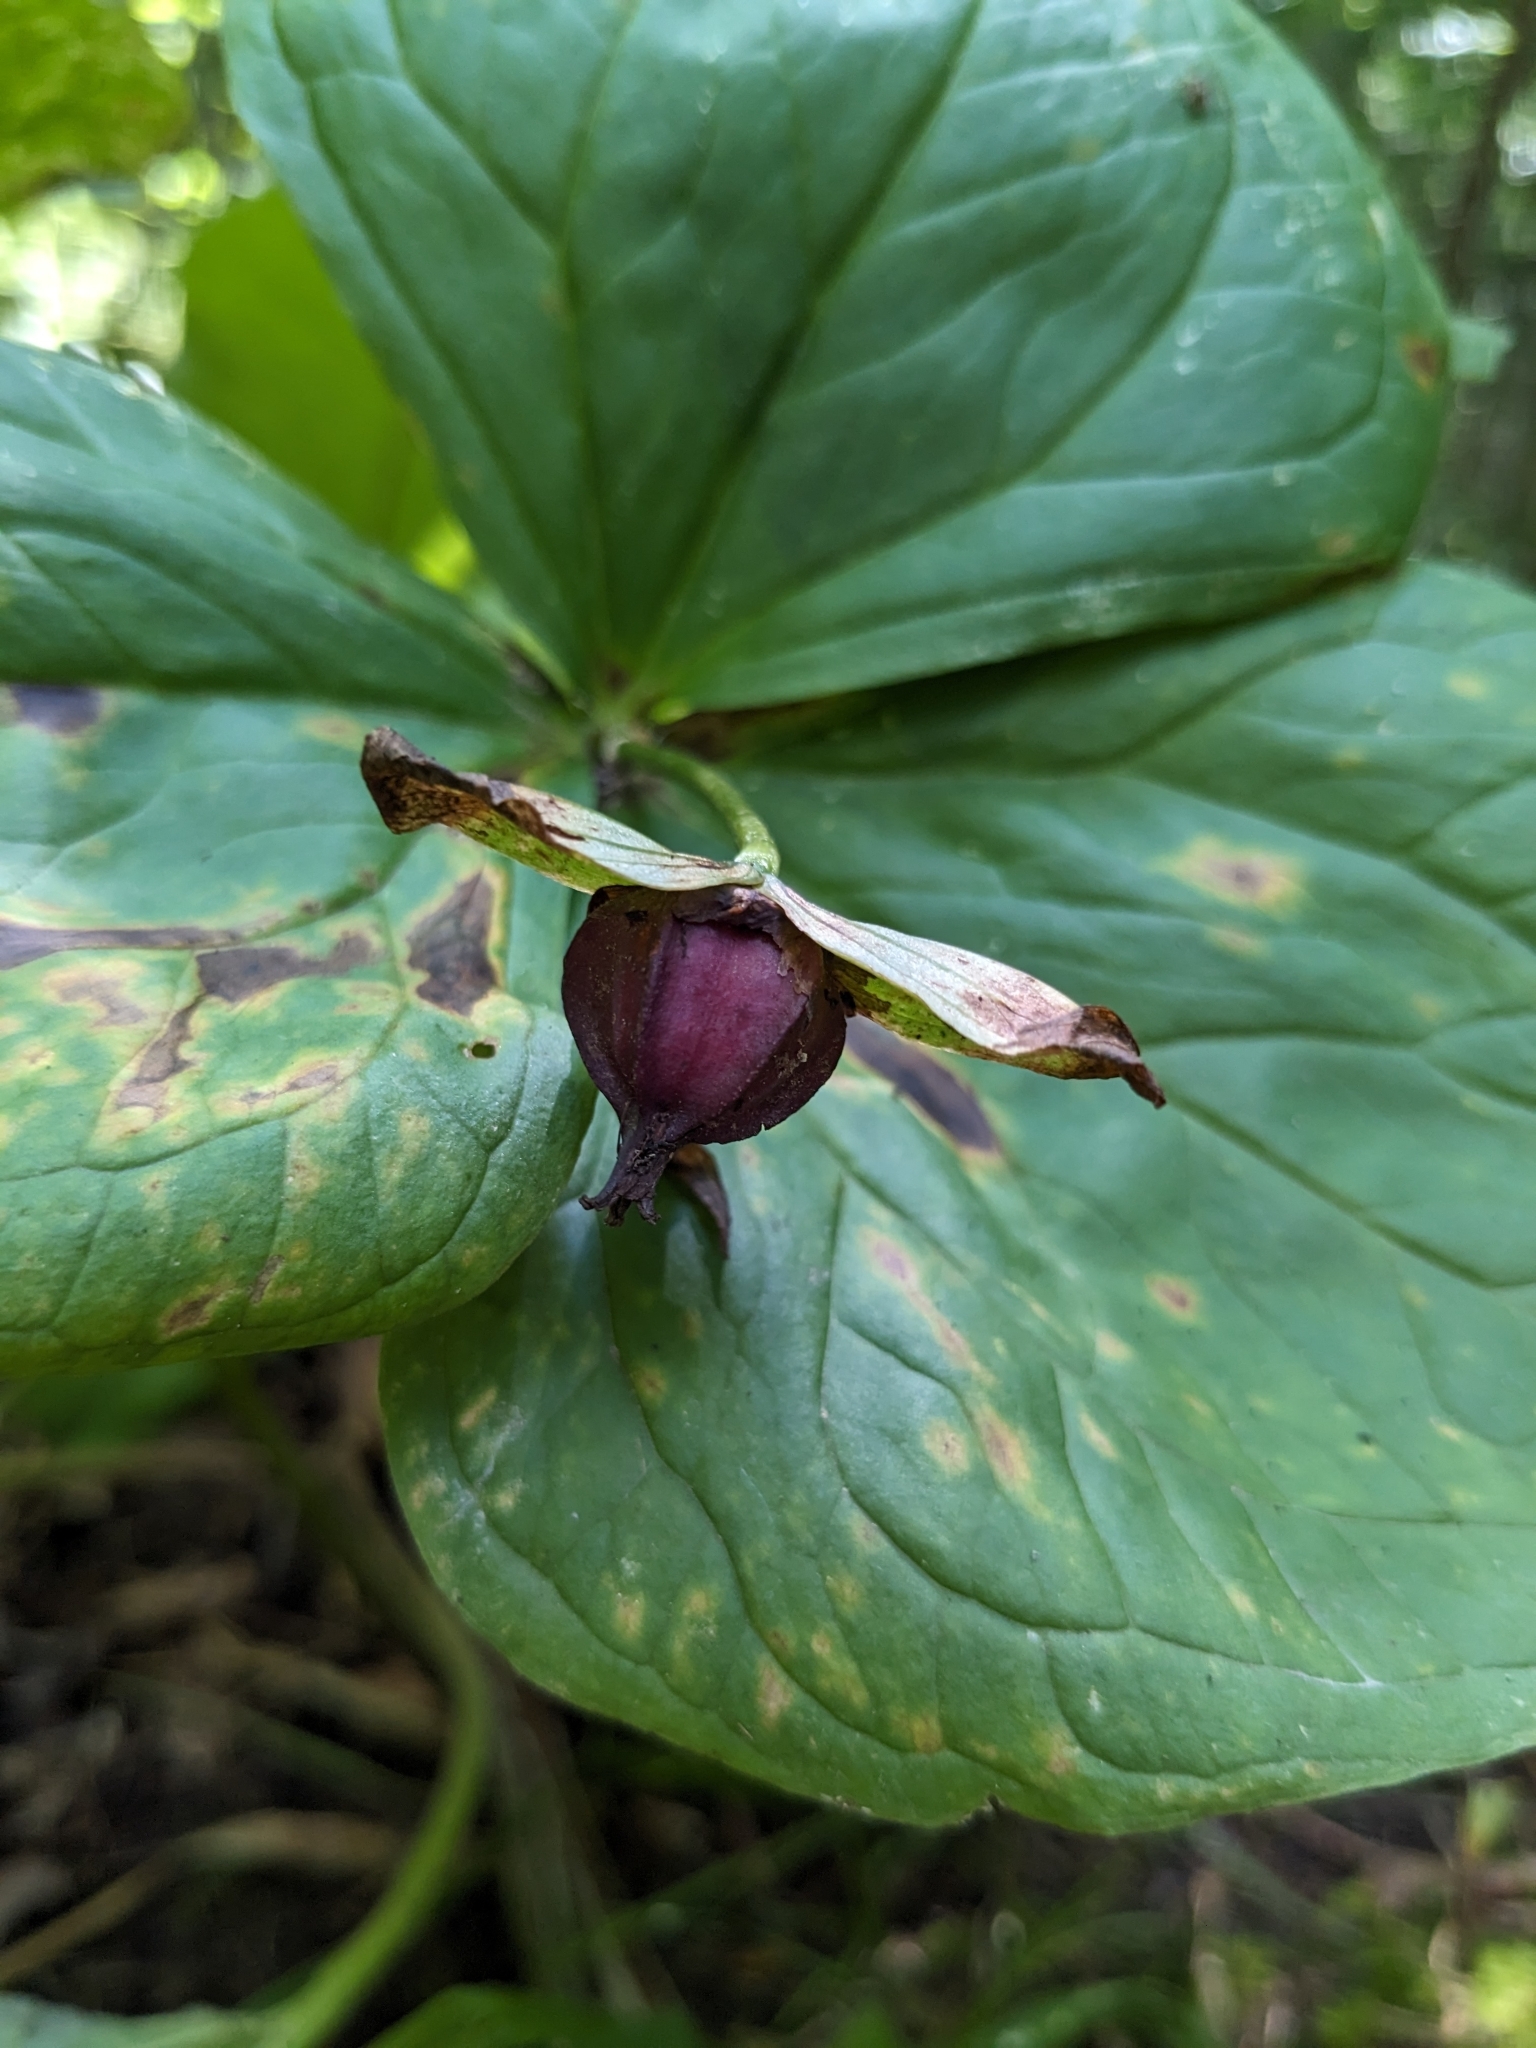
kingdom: Plantae
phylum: Tracheophyta
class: Liliopsida
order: Liliales
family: Melanthiaceae
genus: Trillium
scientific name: Trillium erectum
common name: Purple trillium
